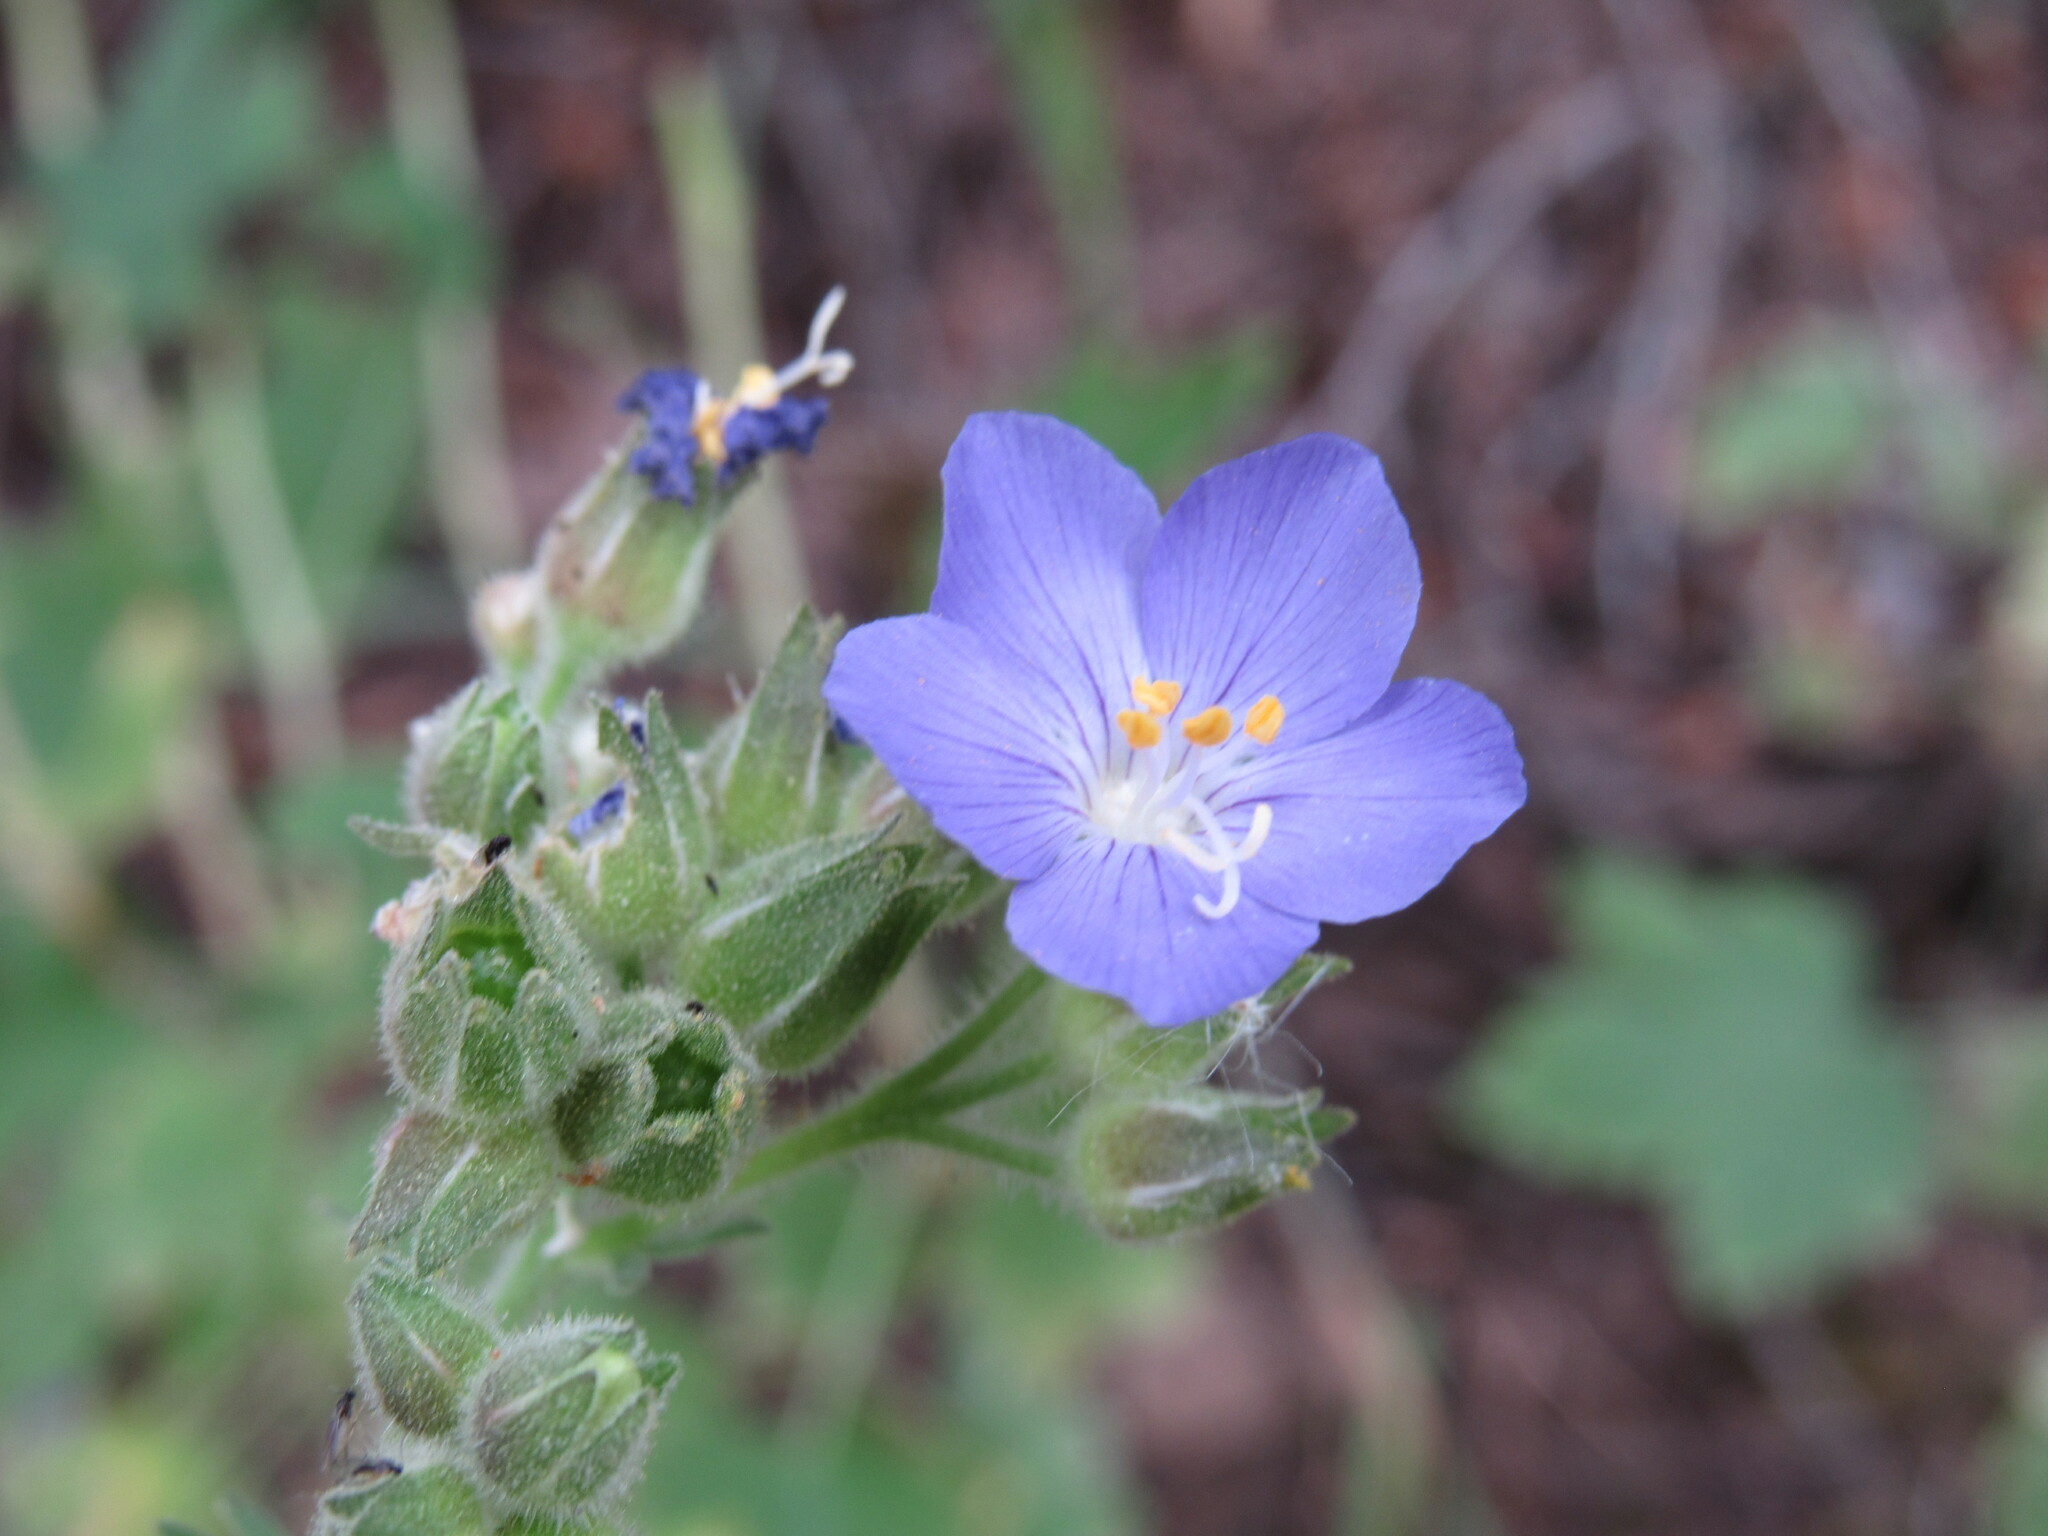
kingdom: Plantae
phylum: Tracheophyta
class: Magnoliopsida
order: Ericales
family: Polemoniaceae
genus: Polemonium
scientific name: Polemonium foliosissimum
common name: Leafy jacob's-ladder
